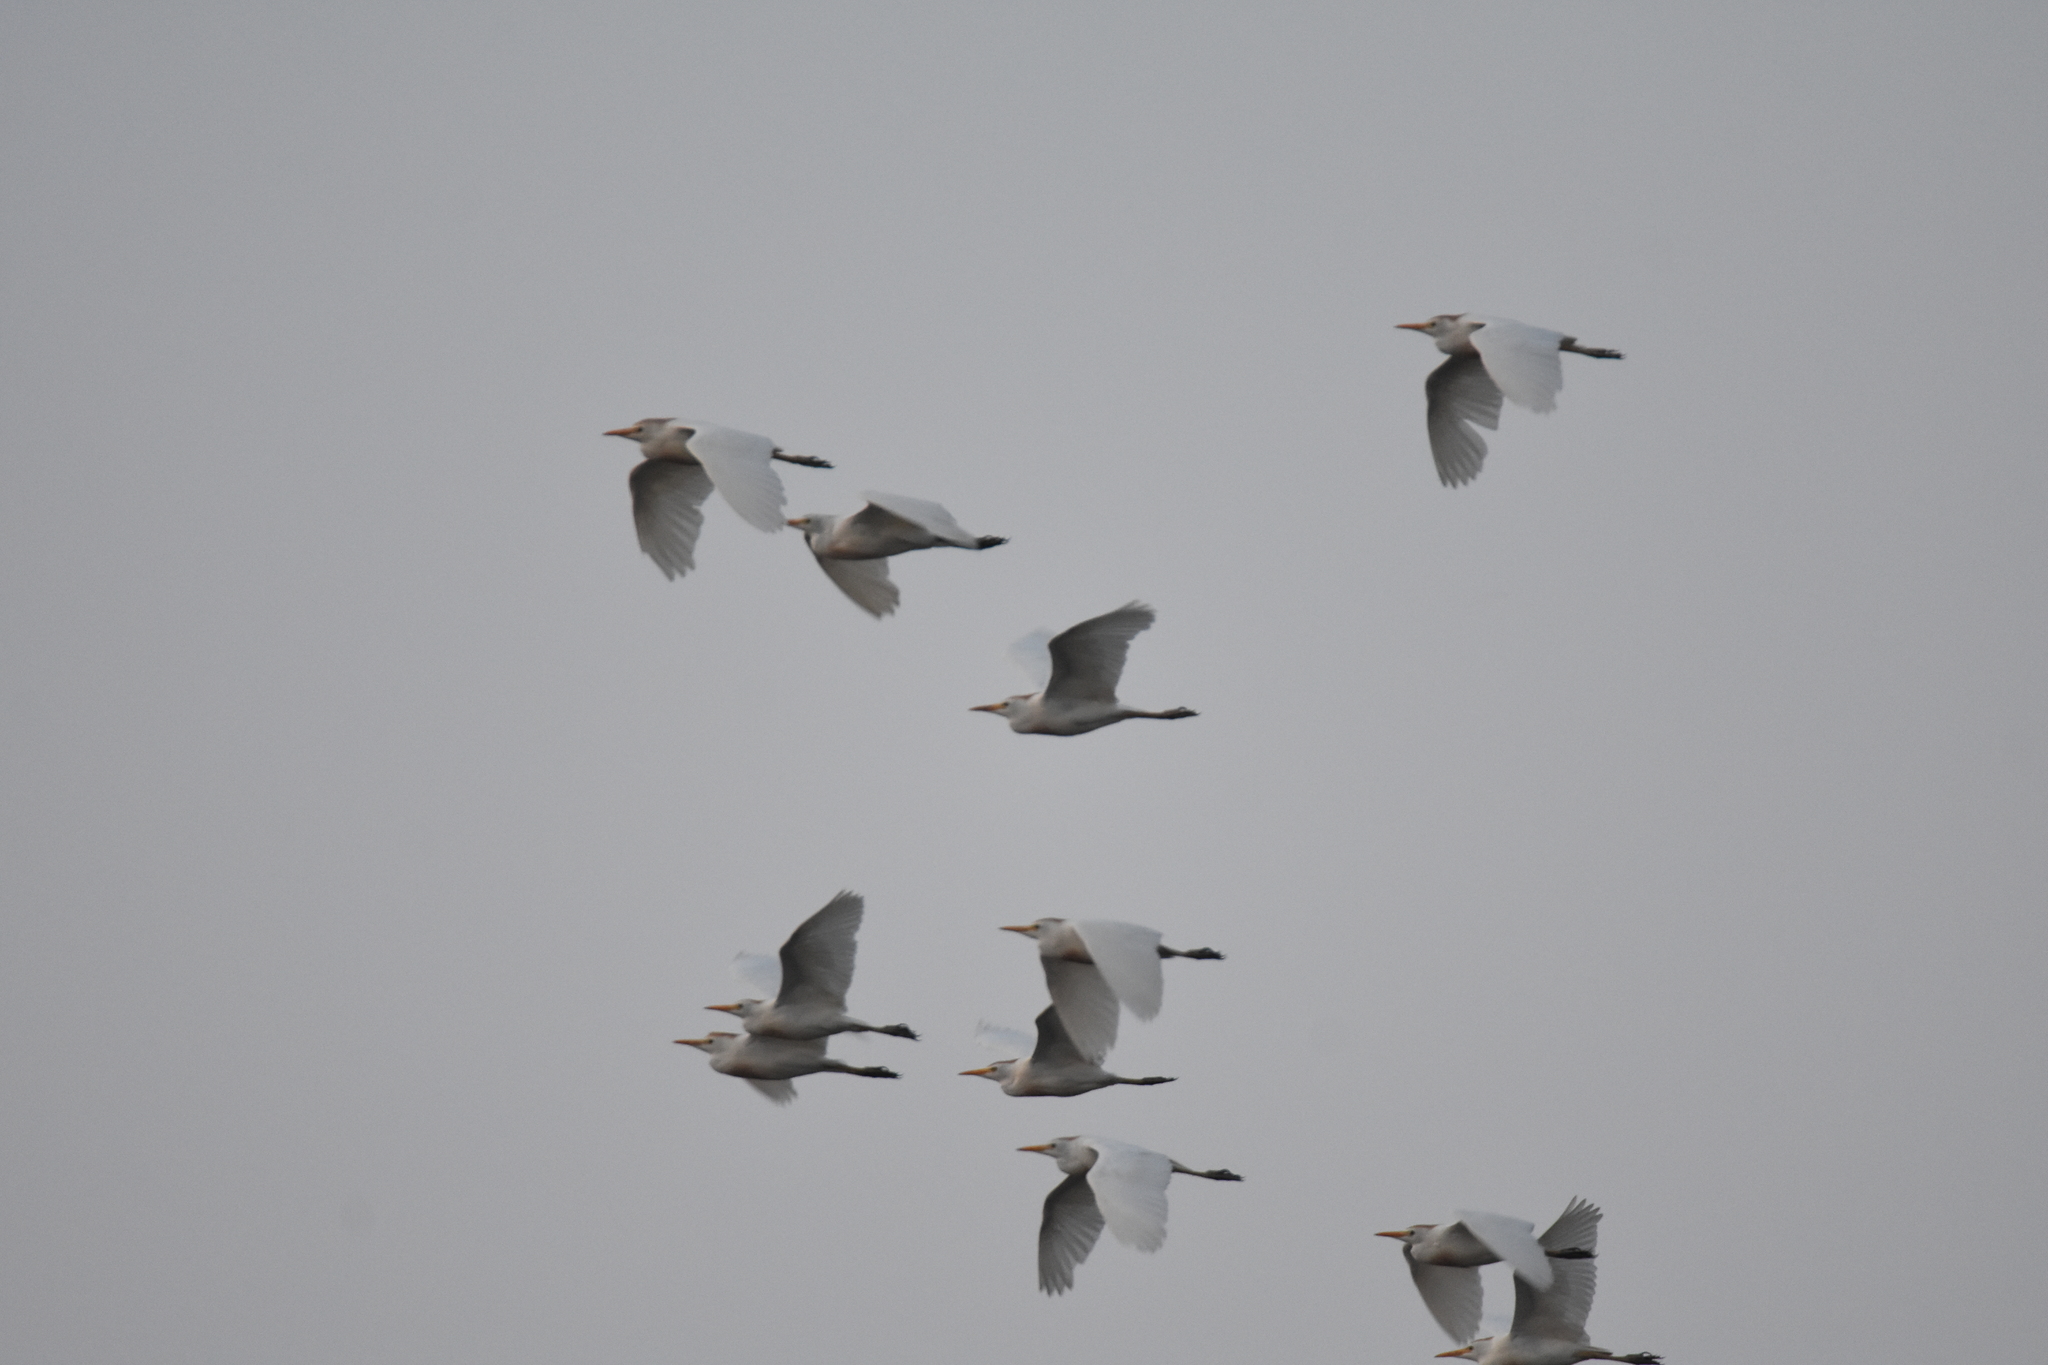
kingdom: Animalia
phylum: Chordata
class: Aves
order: Pelecaniformes
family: Ardeidae
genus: Bubulcus
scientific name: Bubulcus ibis
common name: Cattle egret
